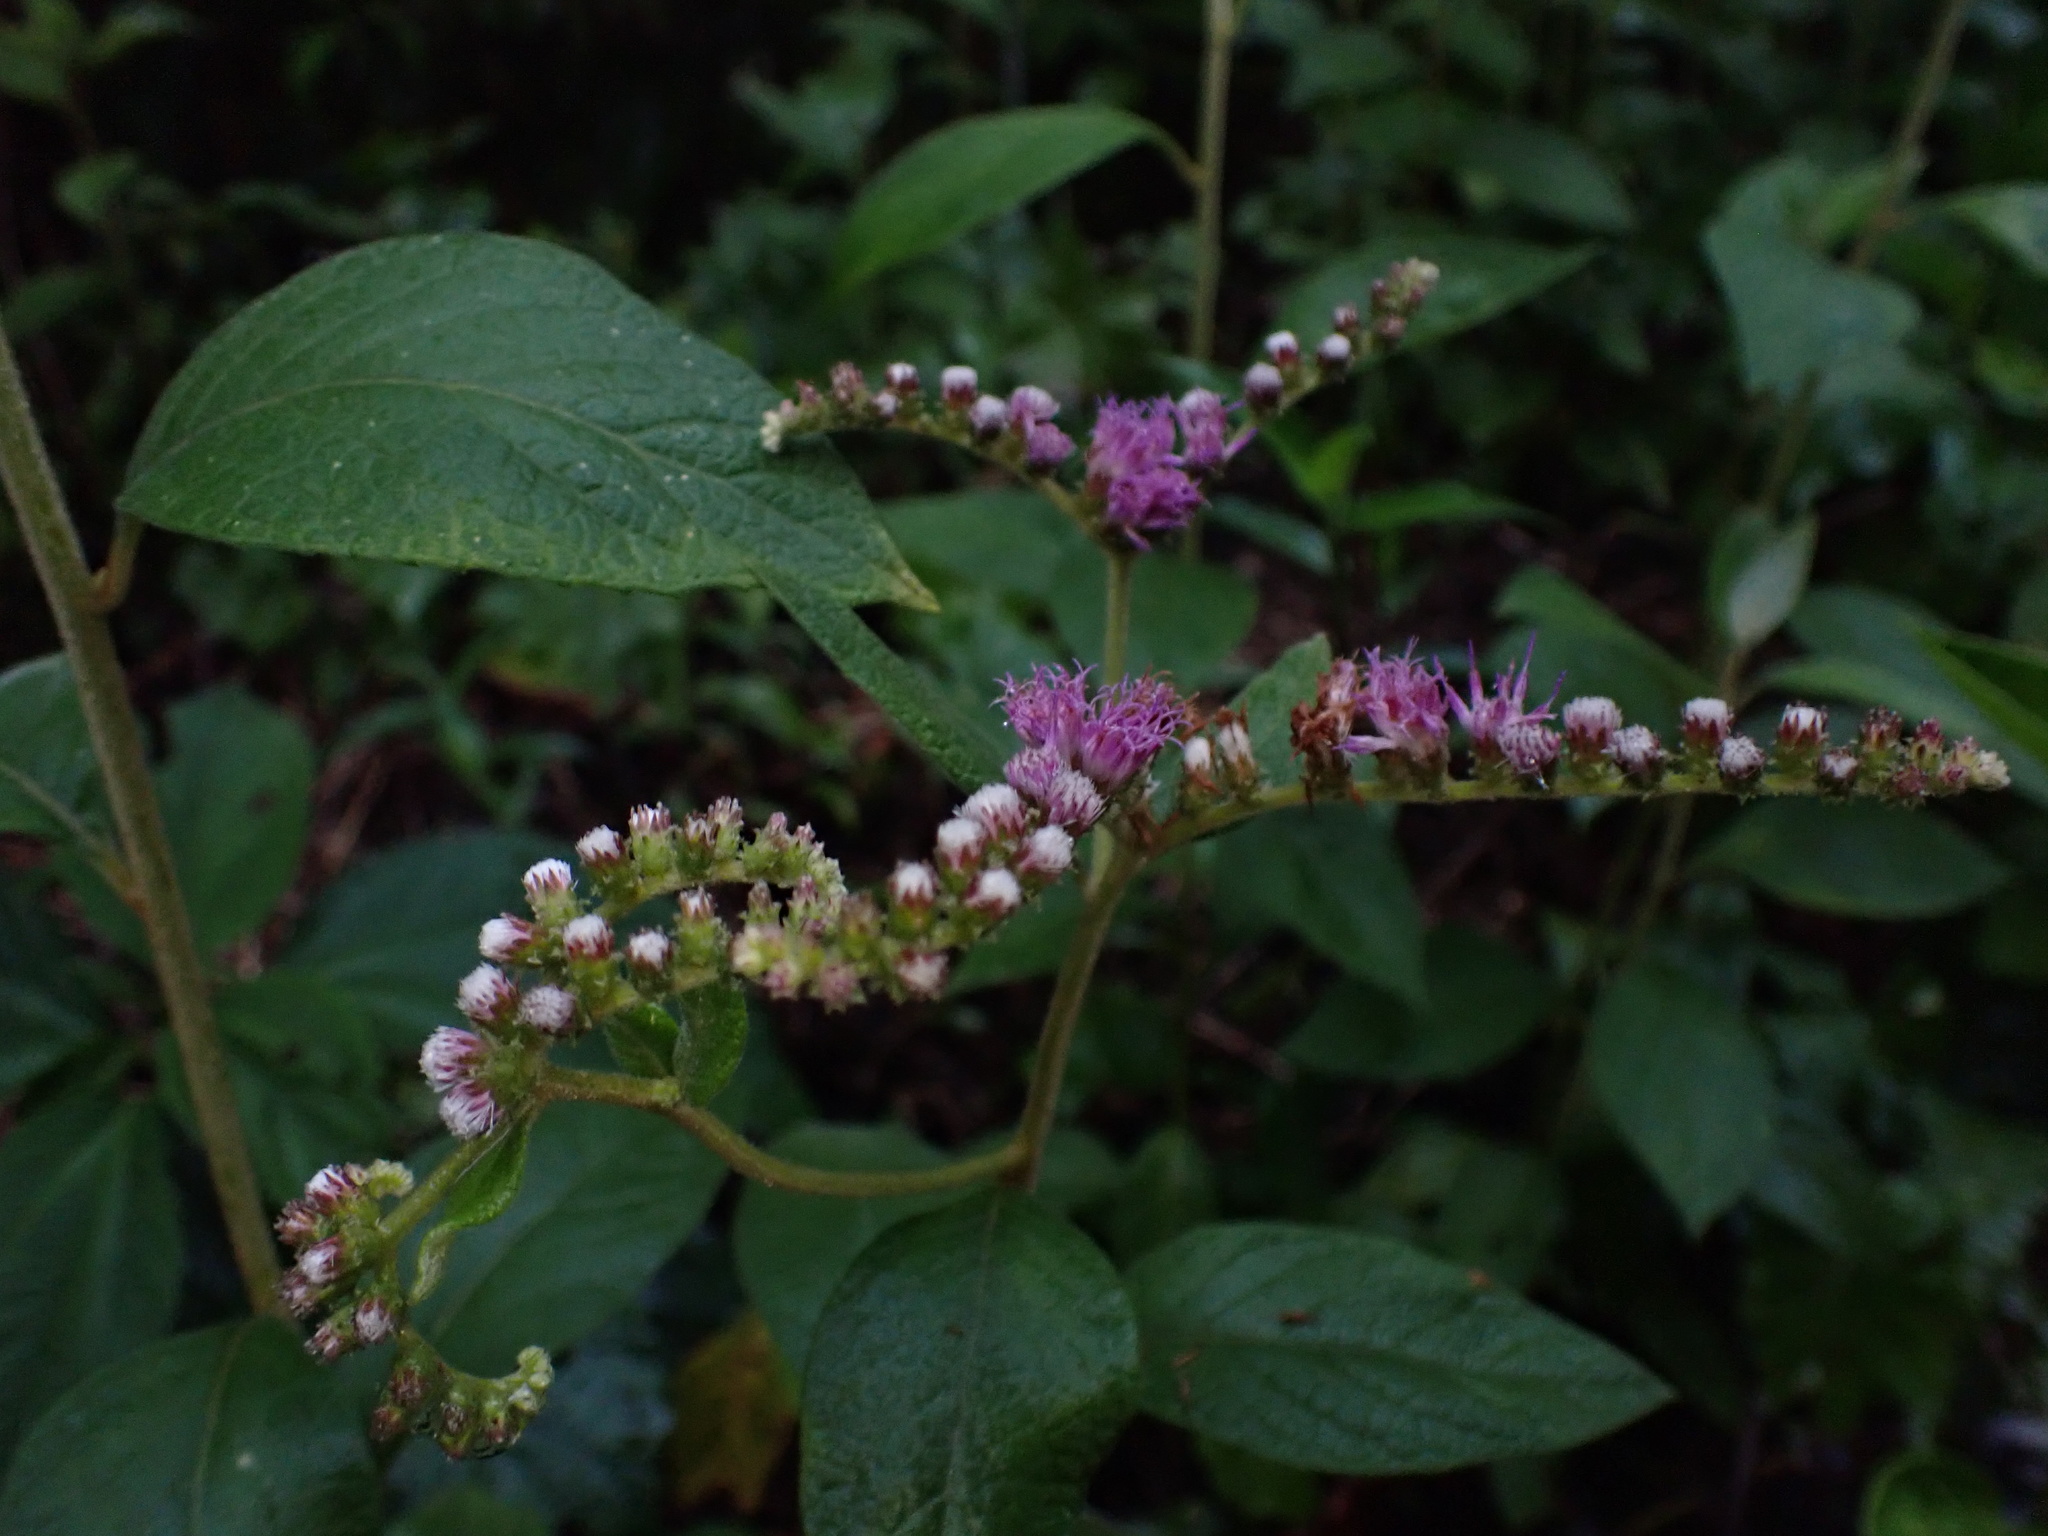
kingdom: Plantae
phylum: Tracheophyta
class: Magnoliopsida
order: Asterales
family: Asteraceae
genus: Cyrtocymura
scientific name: Cyrtocymura scorpioides
